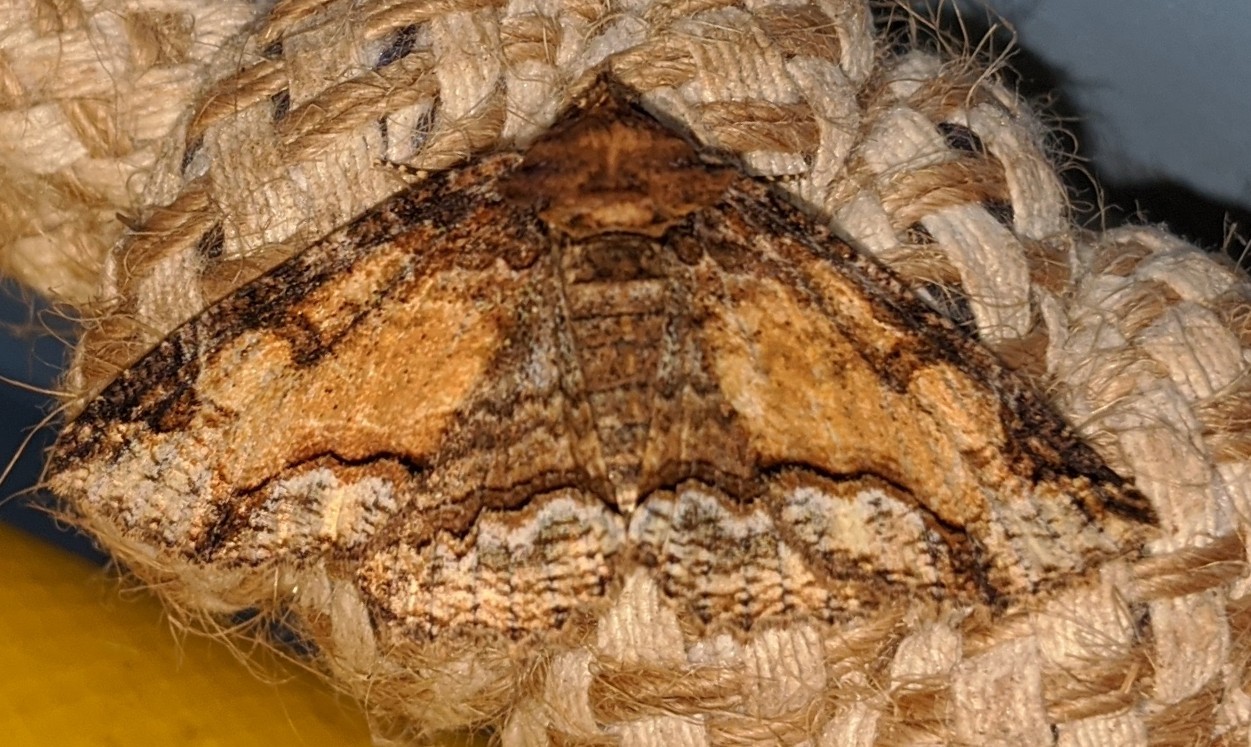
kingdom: Animalia
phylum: Arthropoda
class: Insecta
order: Lepidoptera
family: Erebidae
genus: Zale
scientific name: Zale minerea
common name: Colorful zale moth
